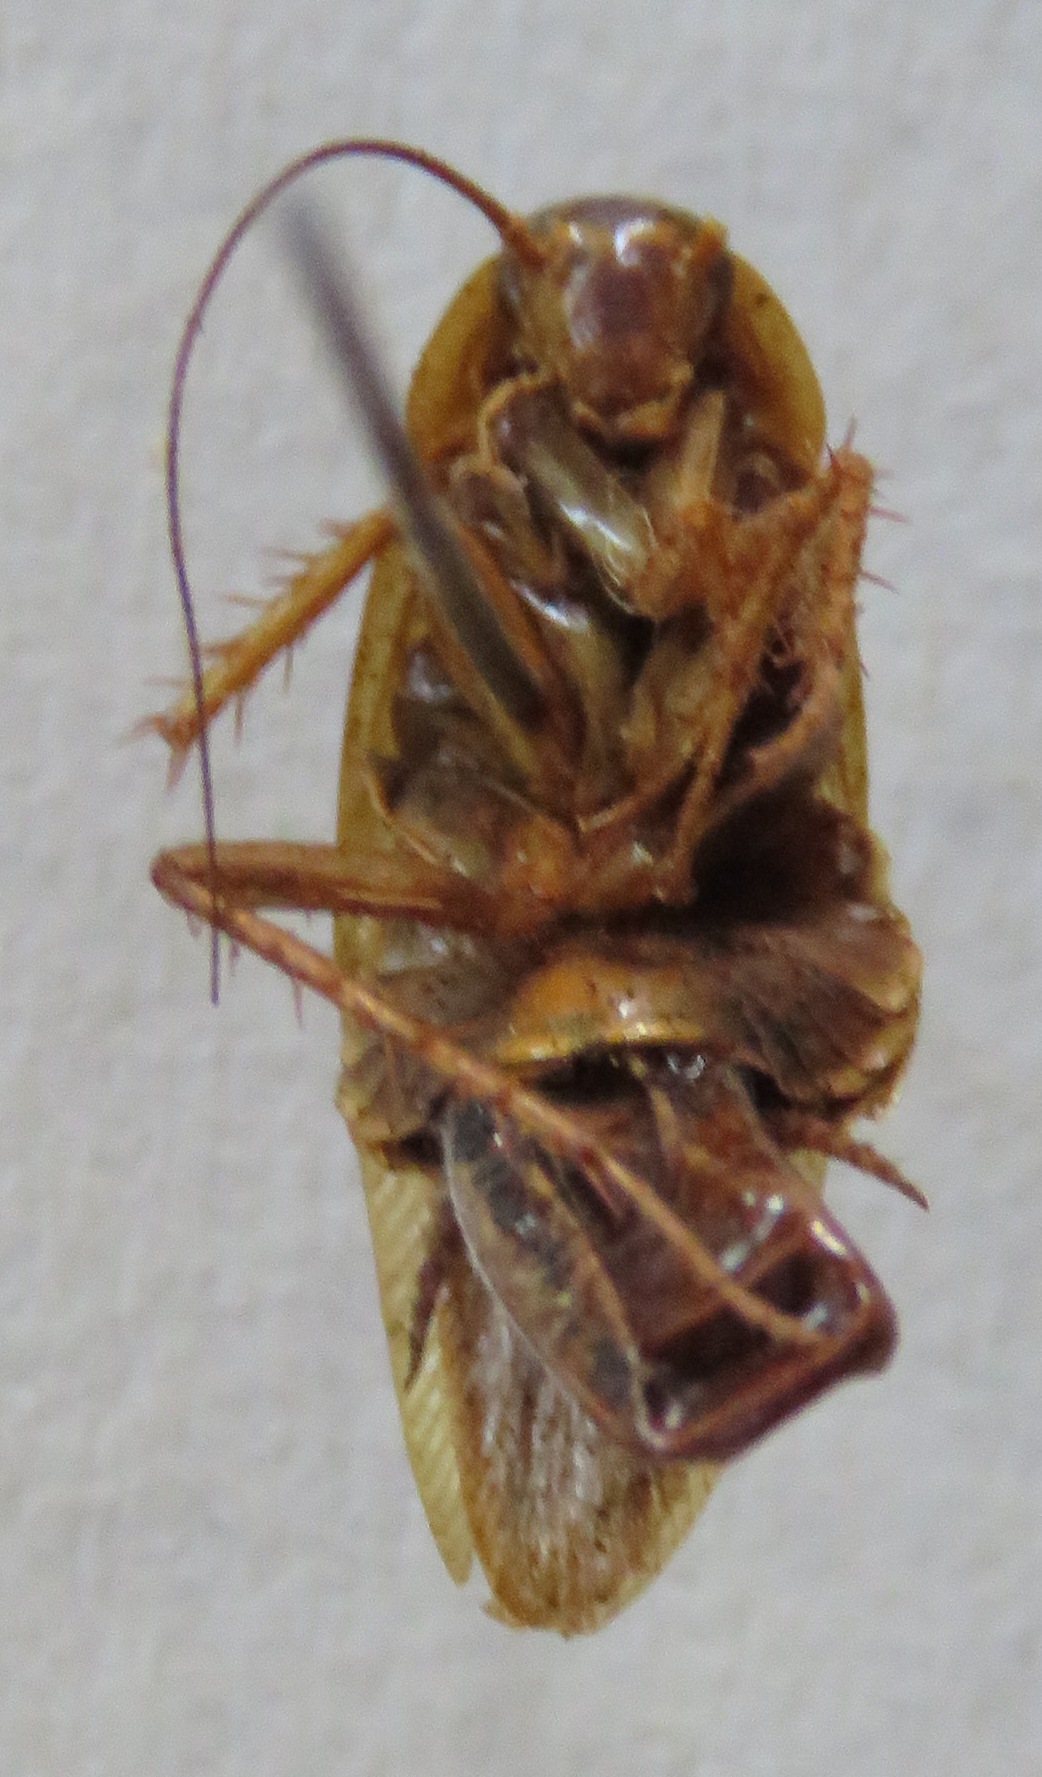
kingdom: Animalia
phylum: Arthropoda
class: Insecta
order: Blattodea
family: Ectobiidae
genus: Blattella
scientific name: Blattella germanica
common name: German cockroach
